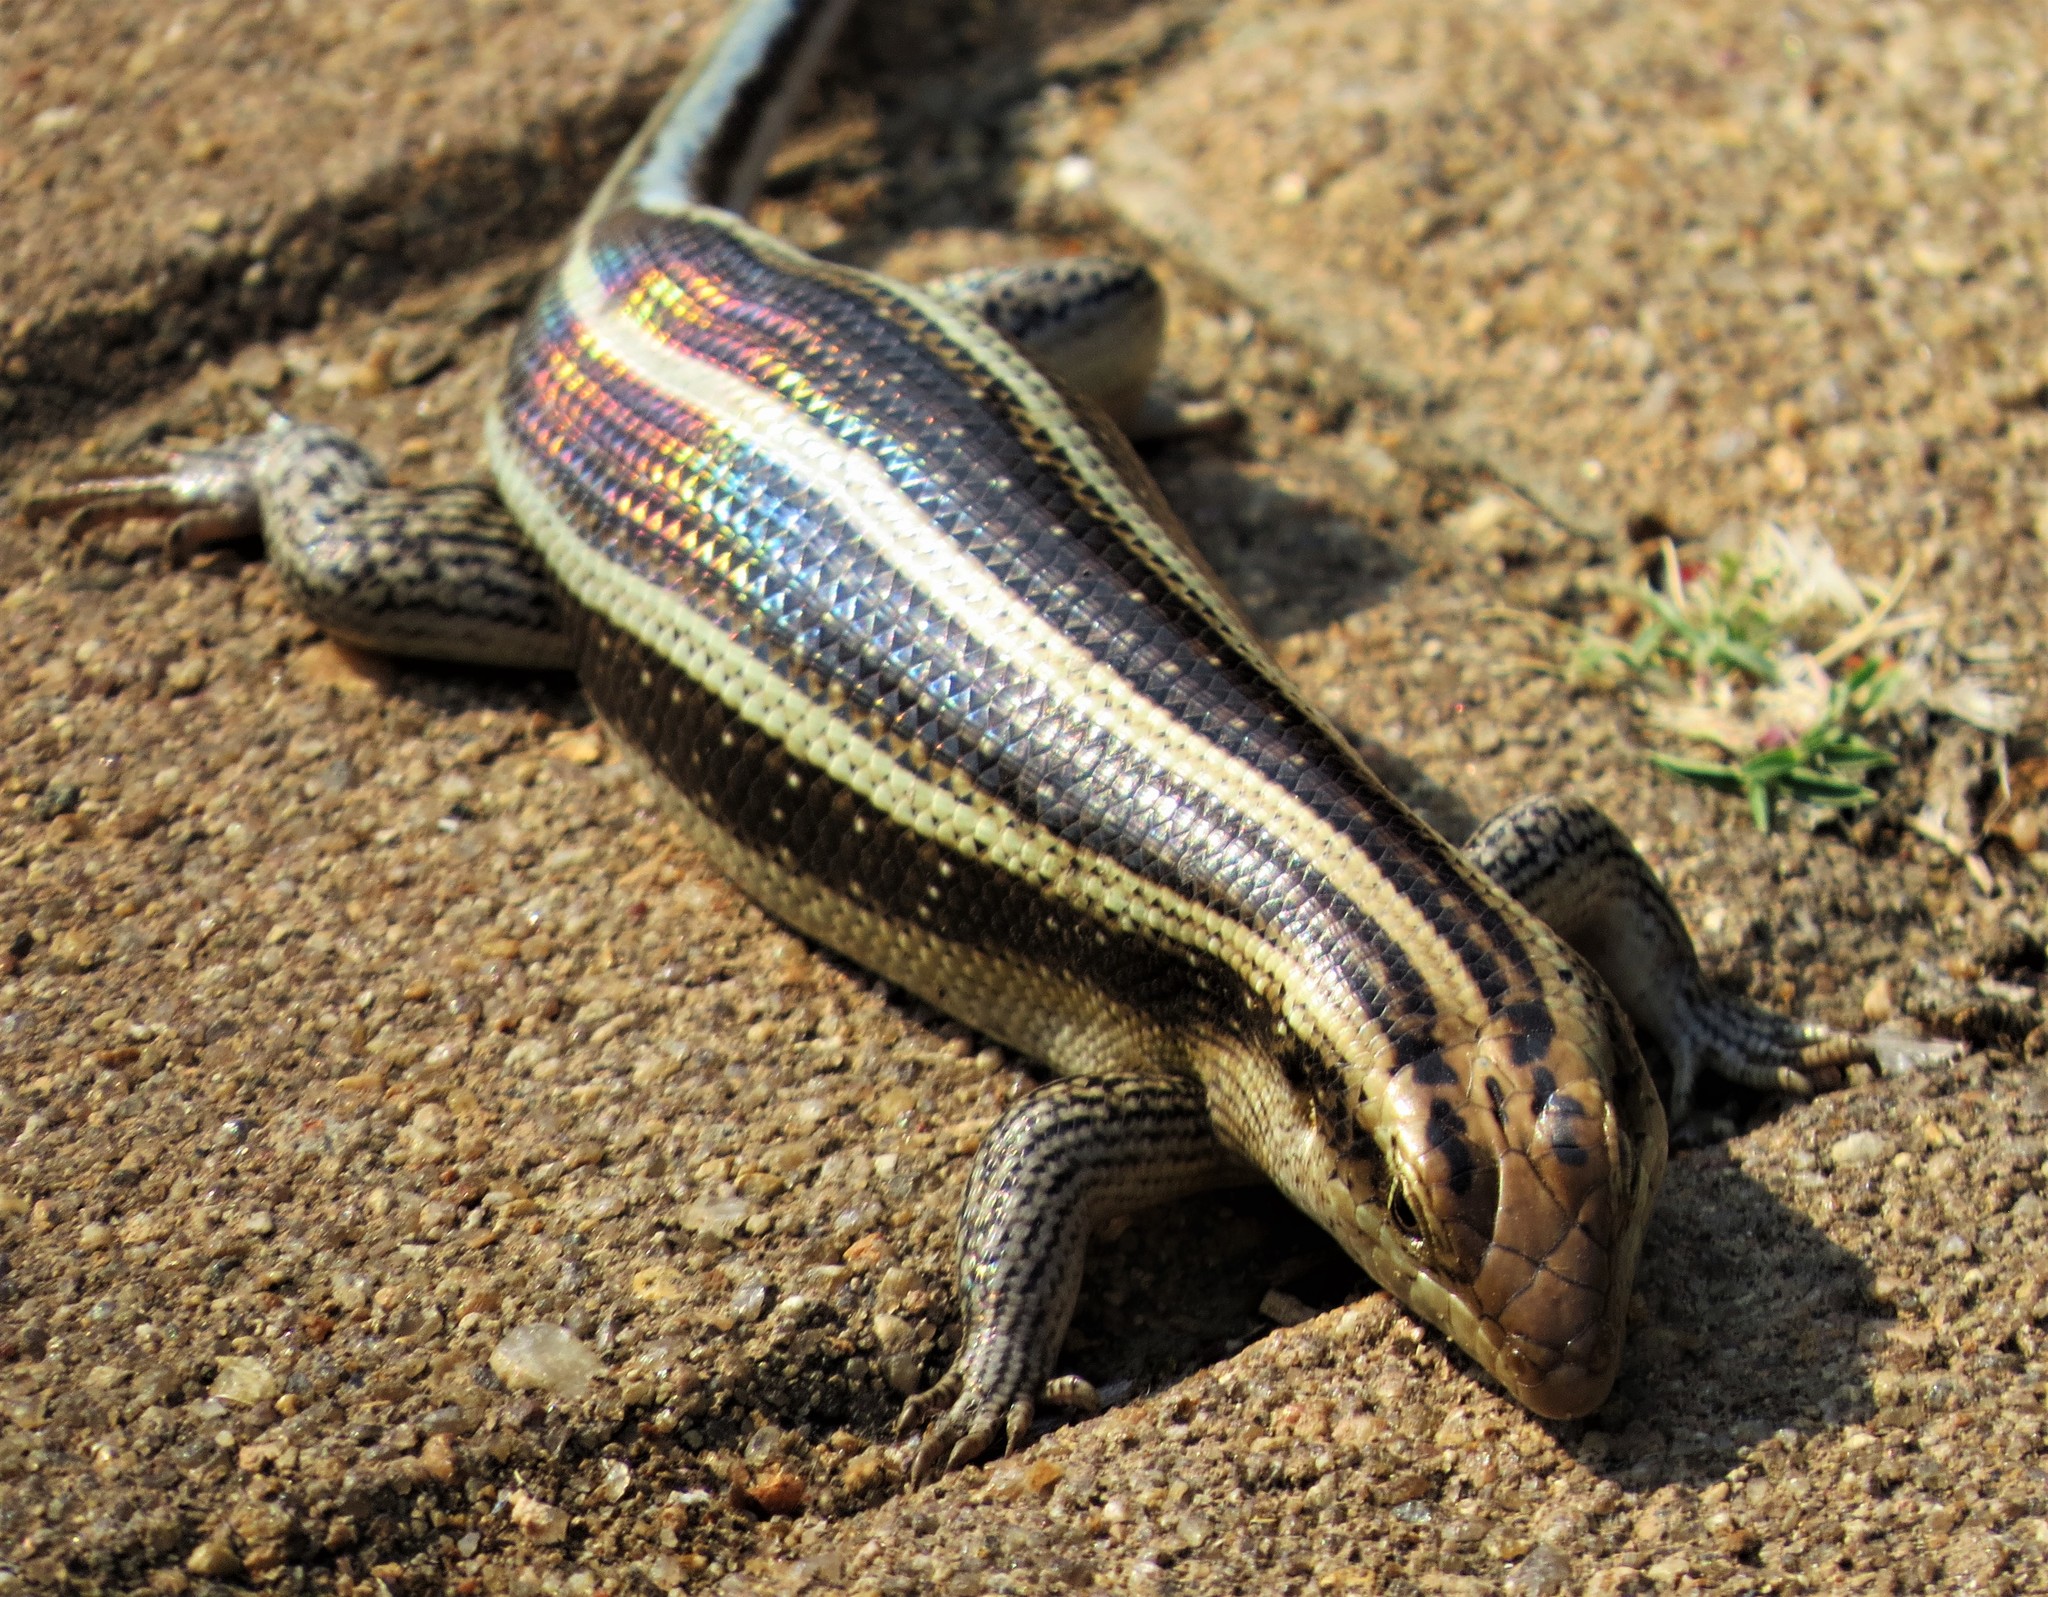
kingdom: Animalia
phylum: Chordata
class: Squamata
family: Scincidae
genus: Trachylepis
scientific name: Trachylepis margaritifera
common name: Rainbow skink
